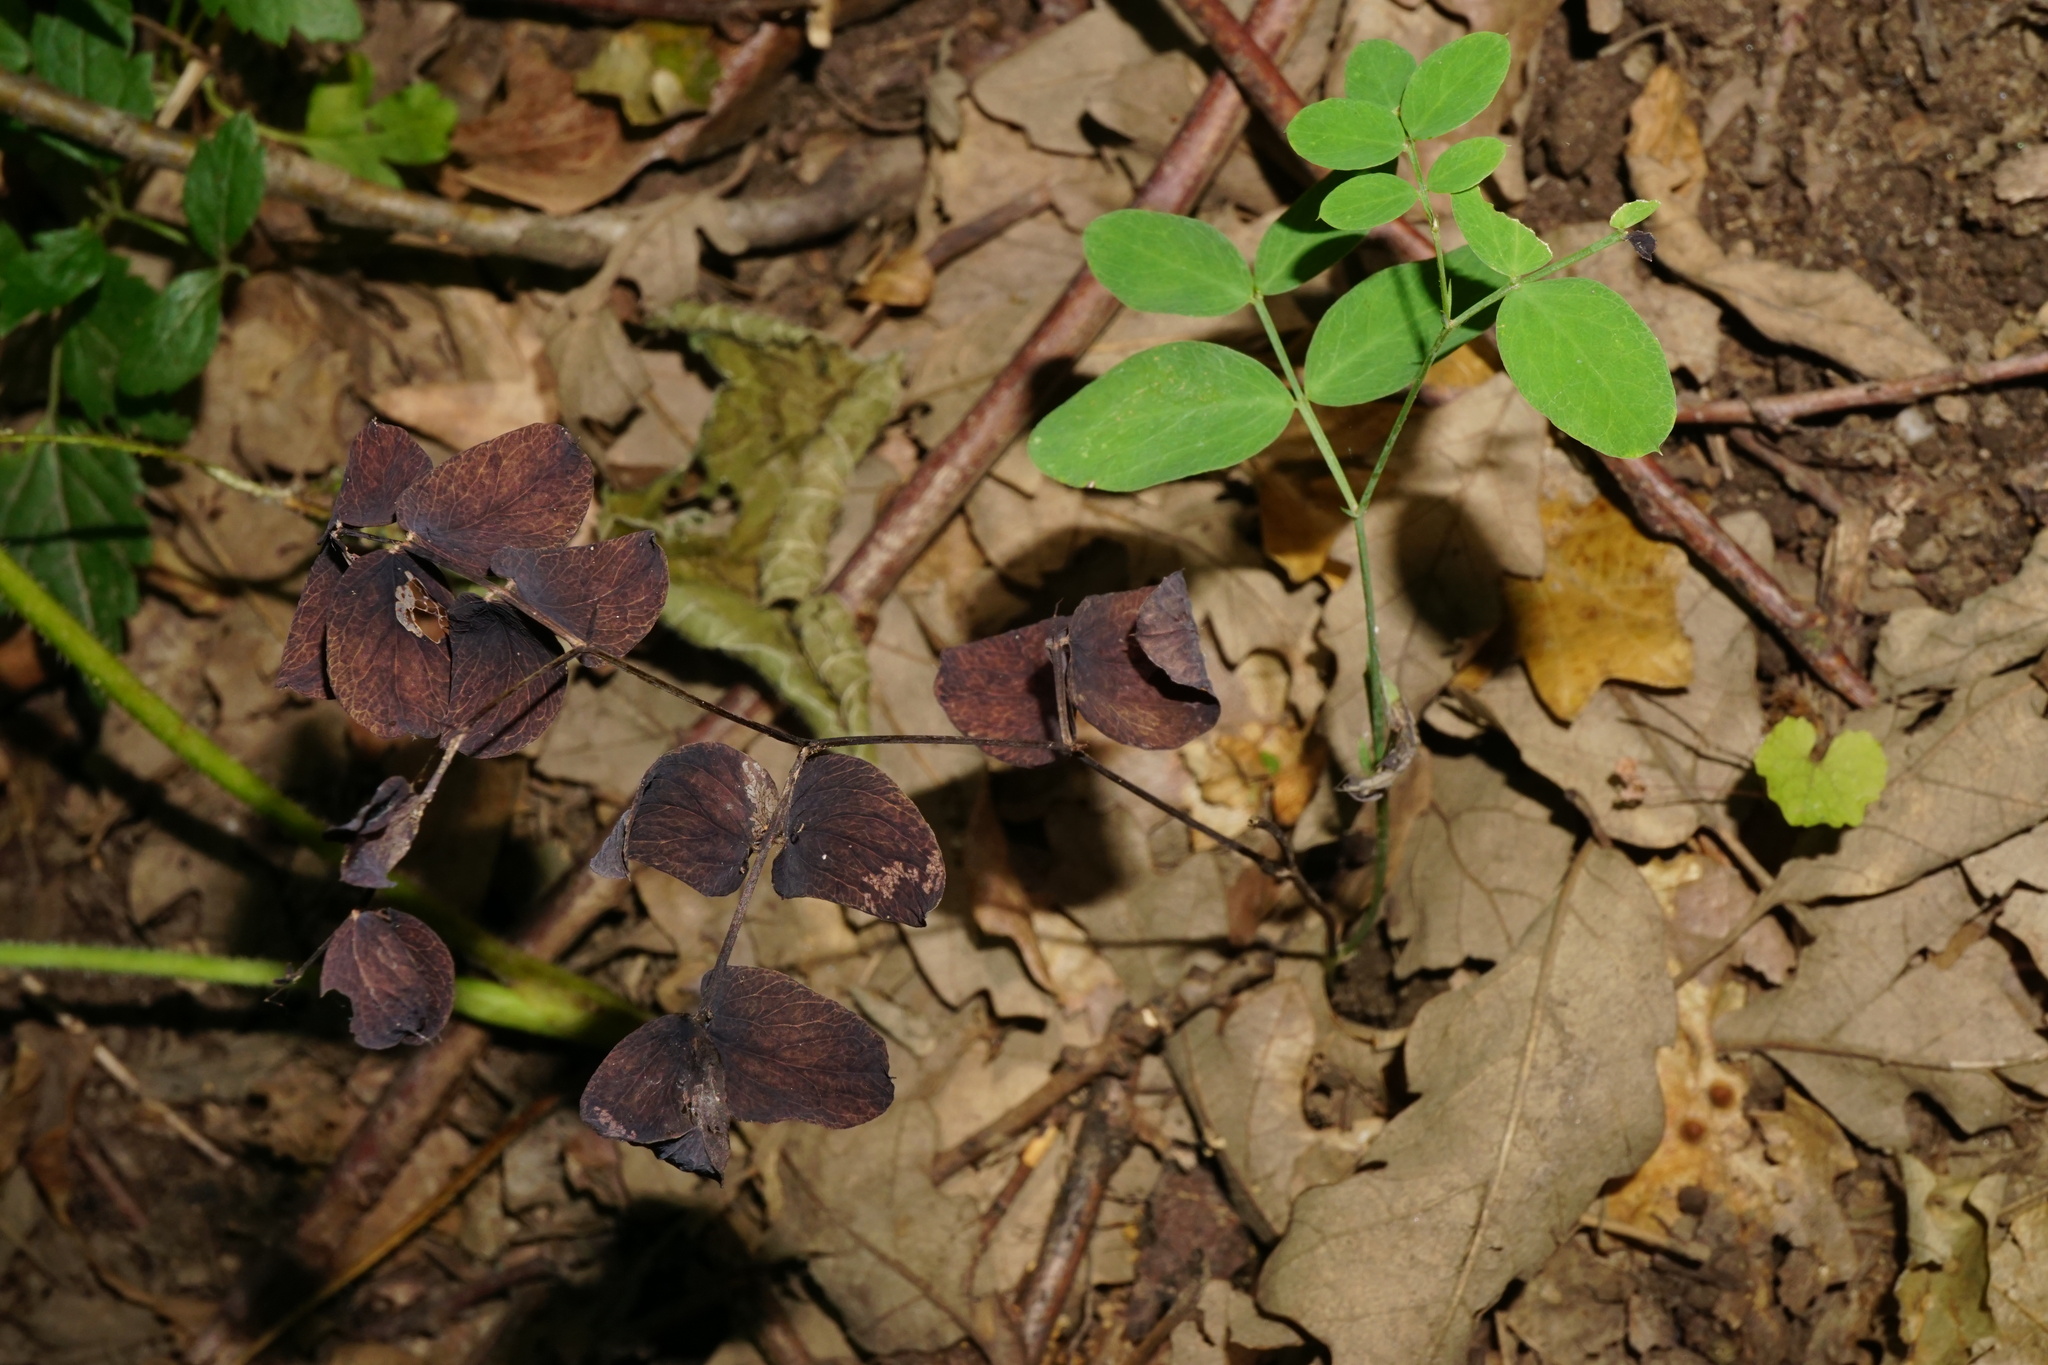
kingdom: Plantae
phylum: Tracheophyta
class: Magnoliopsida
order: Fabales
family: Fabaceae
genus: Lathyrus
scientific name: Lathyrus niger
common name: Black pea
